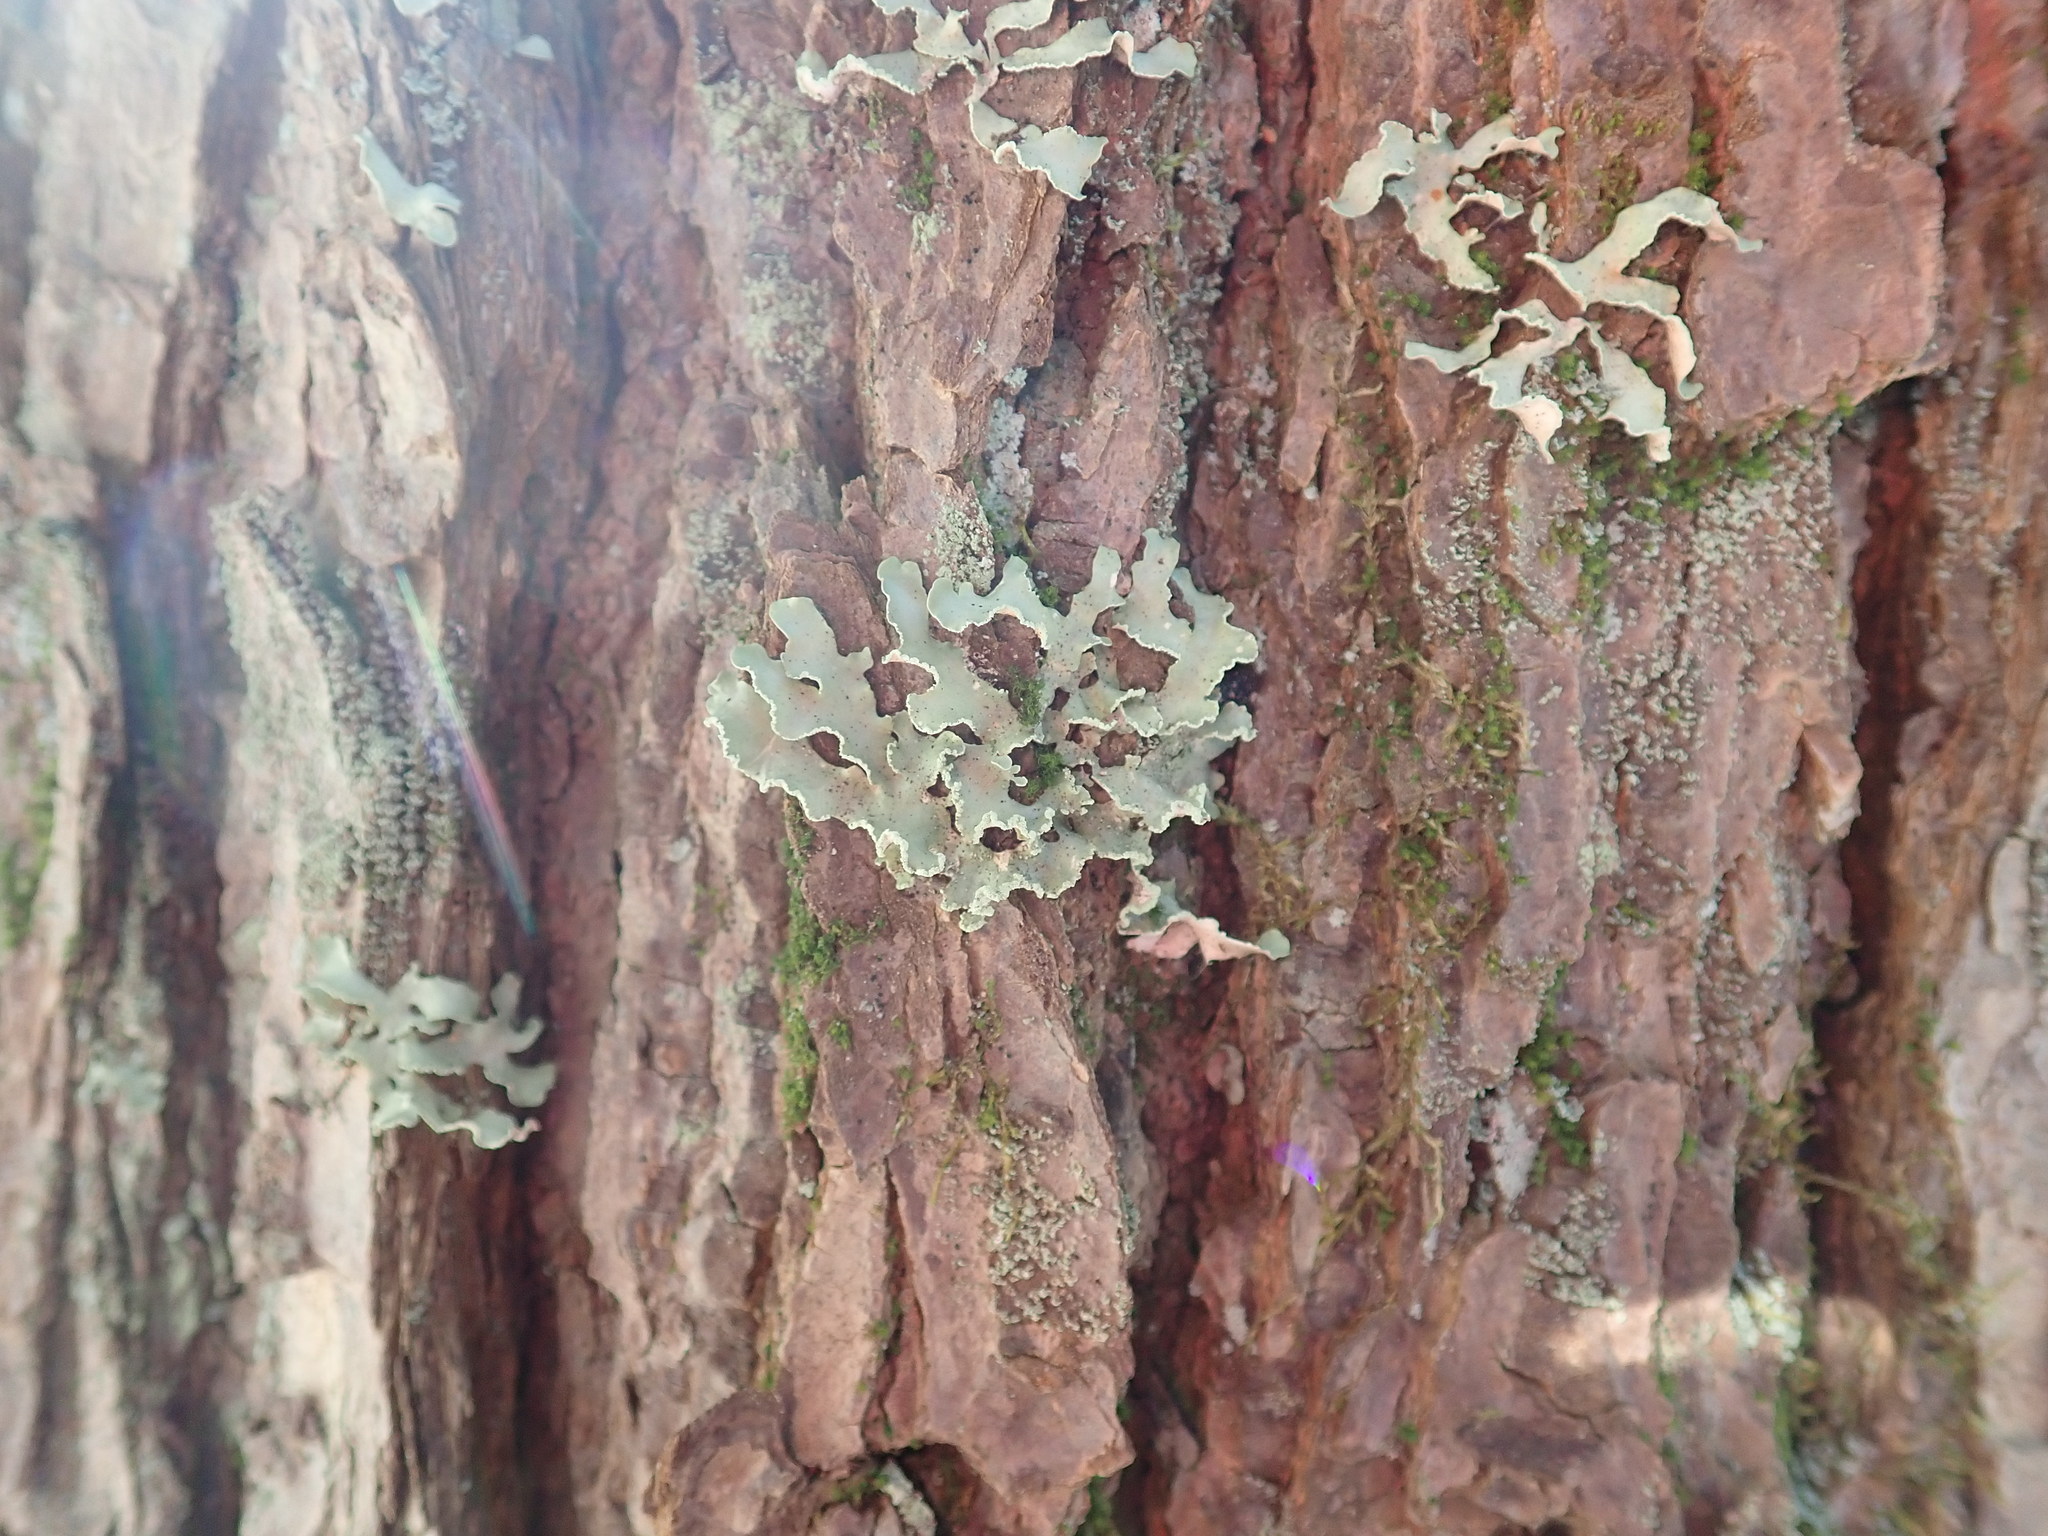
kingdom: Fungi
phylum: Ascomycota
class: Lecanoromycetes
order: Lecanorales
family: Parmeliaceae
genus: Usnocetraria
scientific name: Usnocetraria oakesiana
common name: Yellow ribbon lichen
